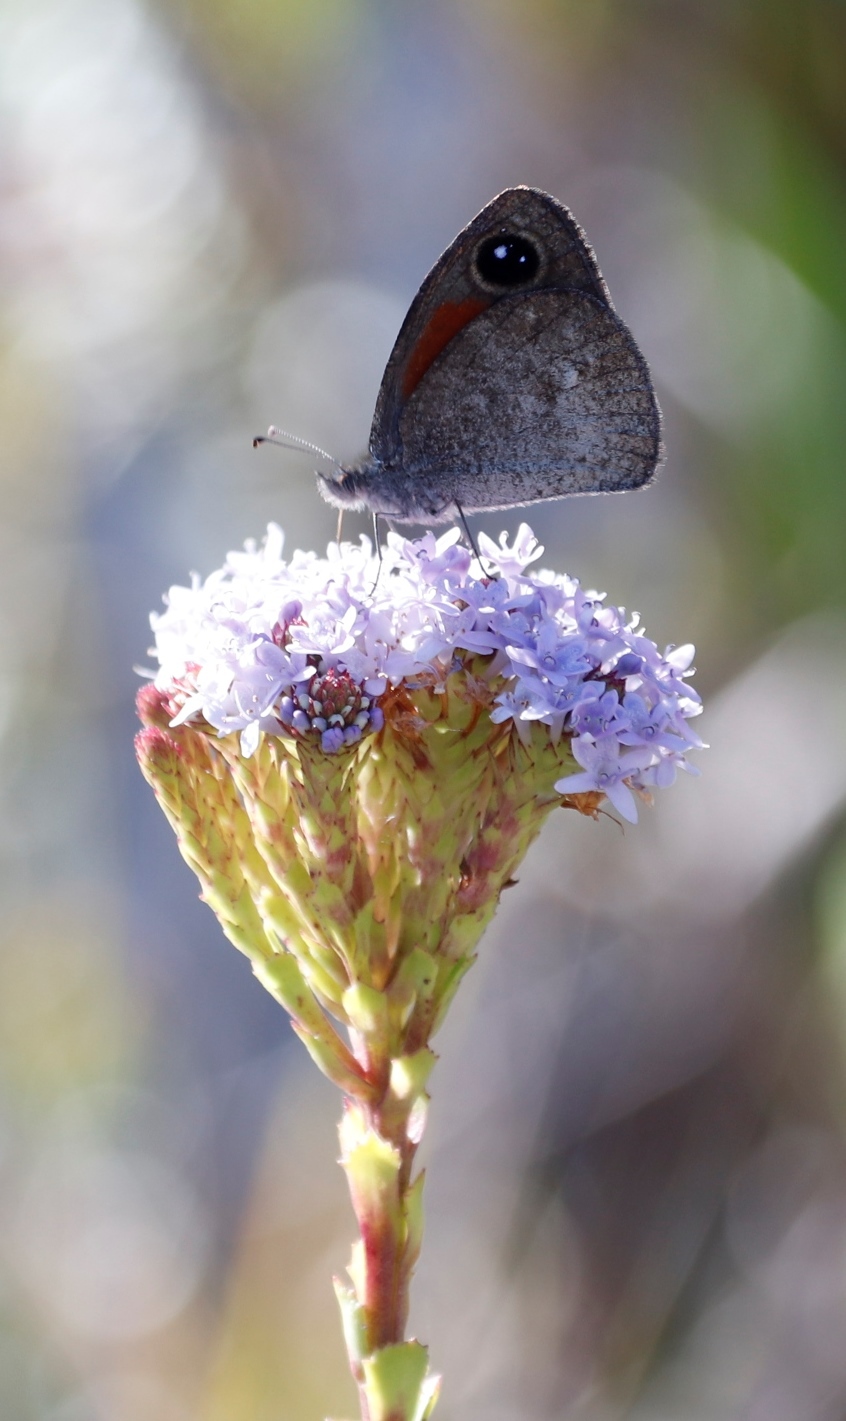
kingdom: Animalia
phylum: Arthropoda
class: Insecta
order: Lepidoptera
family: Nymphalidae
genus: Stygionympha
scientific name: Stygionympha vigilans
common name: Western hillside brown
